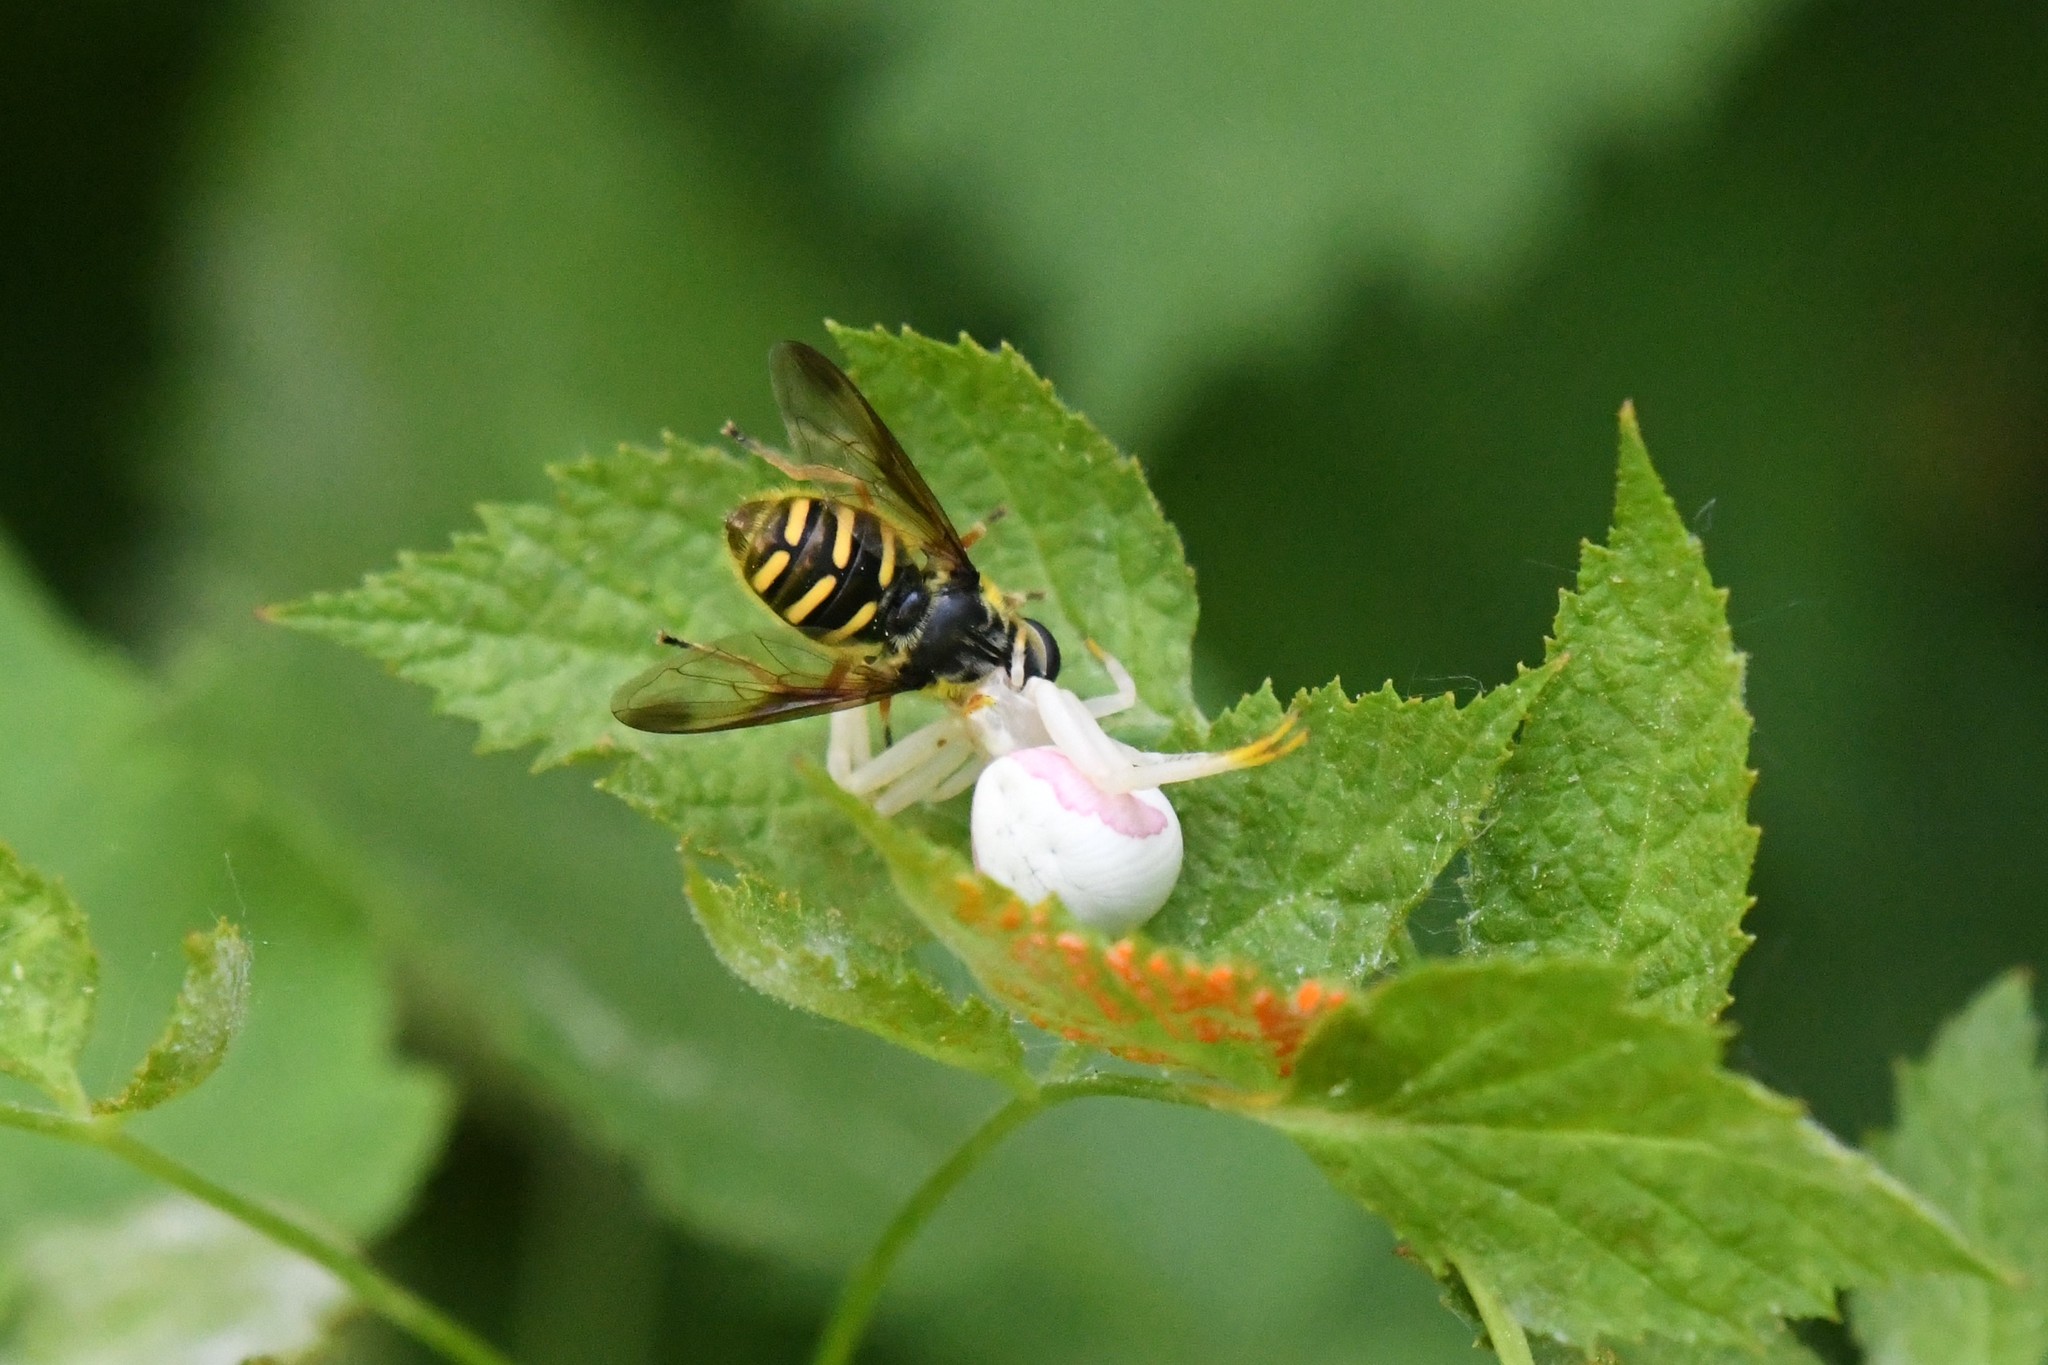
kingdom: Animalia
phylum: Arthropoda
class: Insecta
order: Diptera
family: Syrphidae
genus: Sericomyia
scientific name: Sericomyia chrysotoxoides
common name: Oblique-banded pond fly
